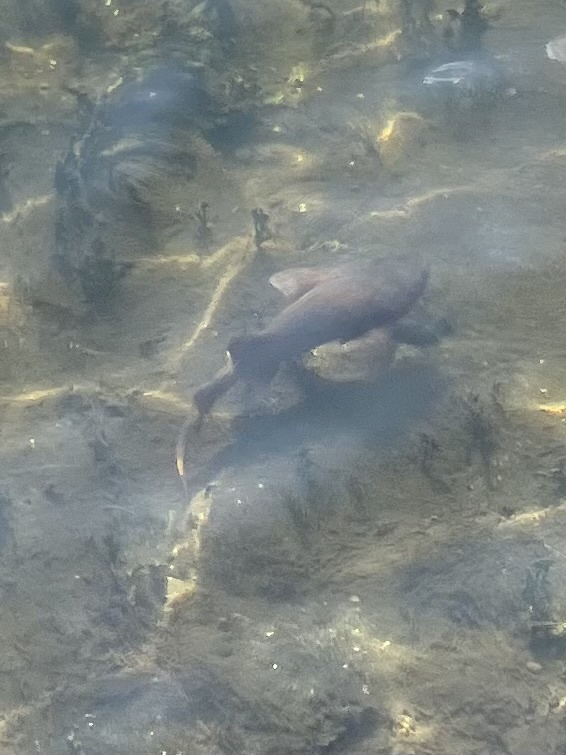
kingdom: Animalia
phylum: Chordata
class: Elasmobranchii
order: Orectolobiformes
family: Ginglymostomatidae
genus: Ginglymostoma
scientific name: Ginglymostoma cirratum
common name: Nurse shark
